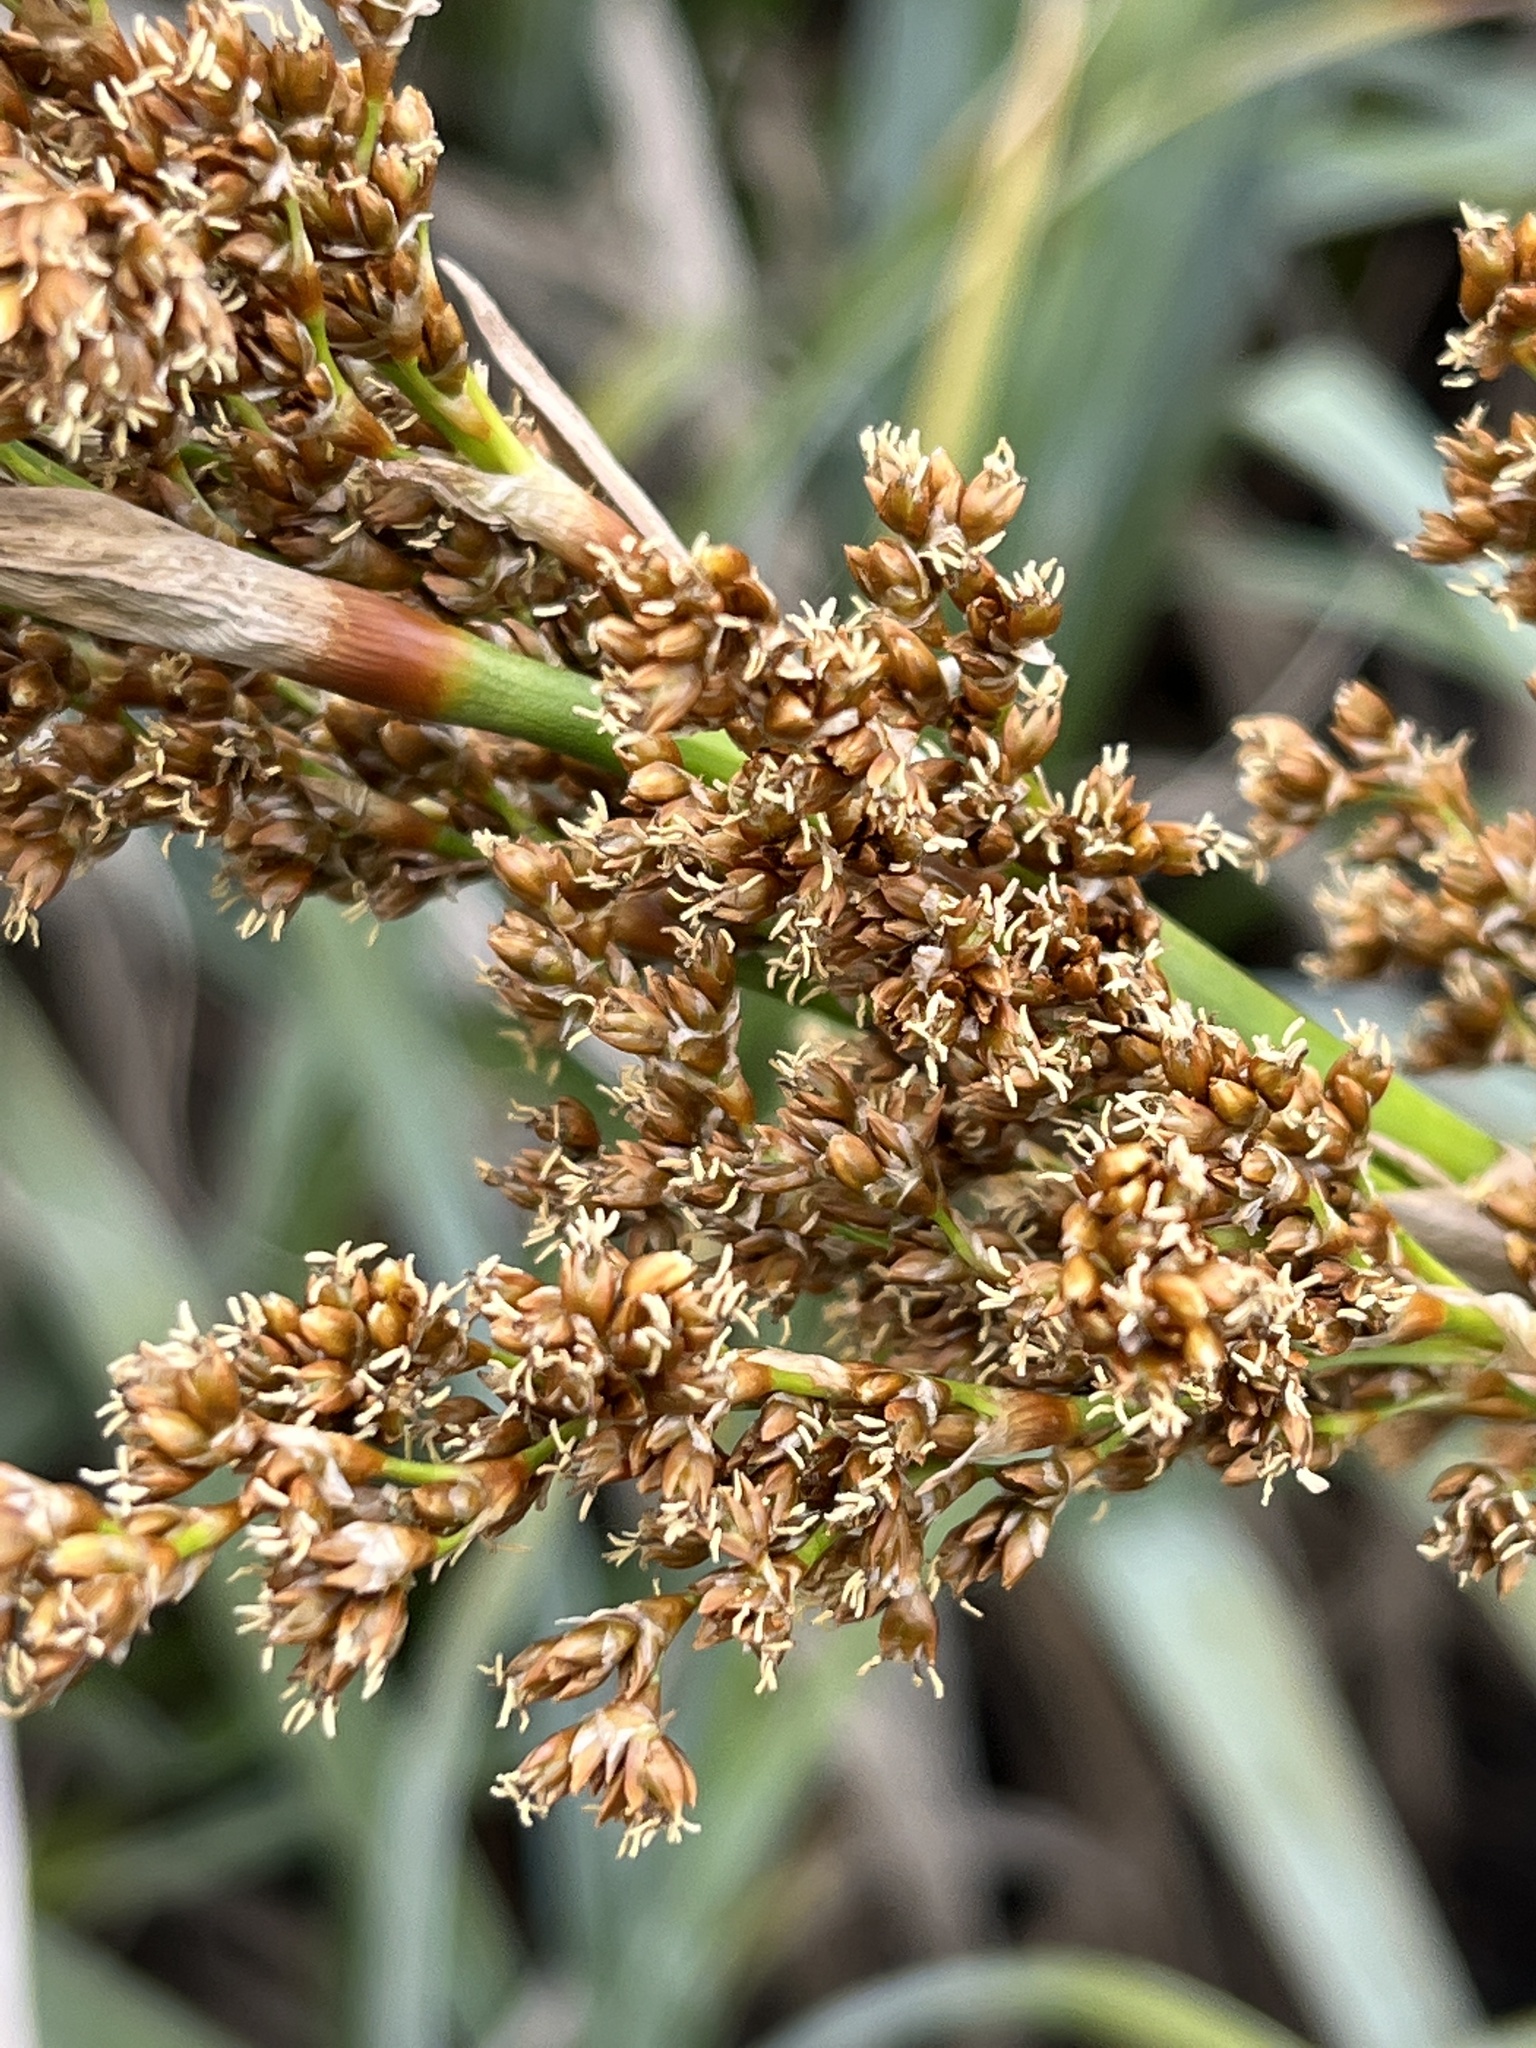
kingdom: Plantae
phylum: Tracheophyta
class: Liliopsida
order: Poales
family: Thurniaceae
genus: Prionium
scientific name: Prionium serratum
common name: Palmiet
